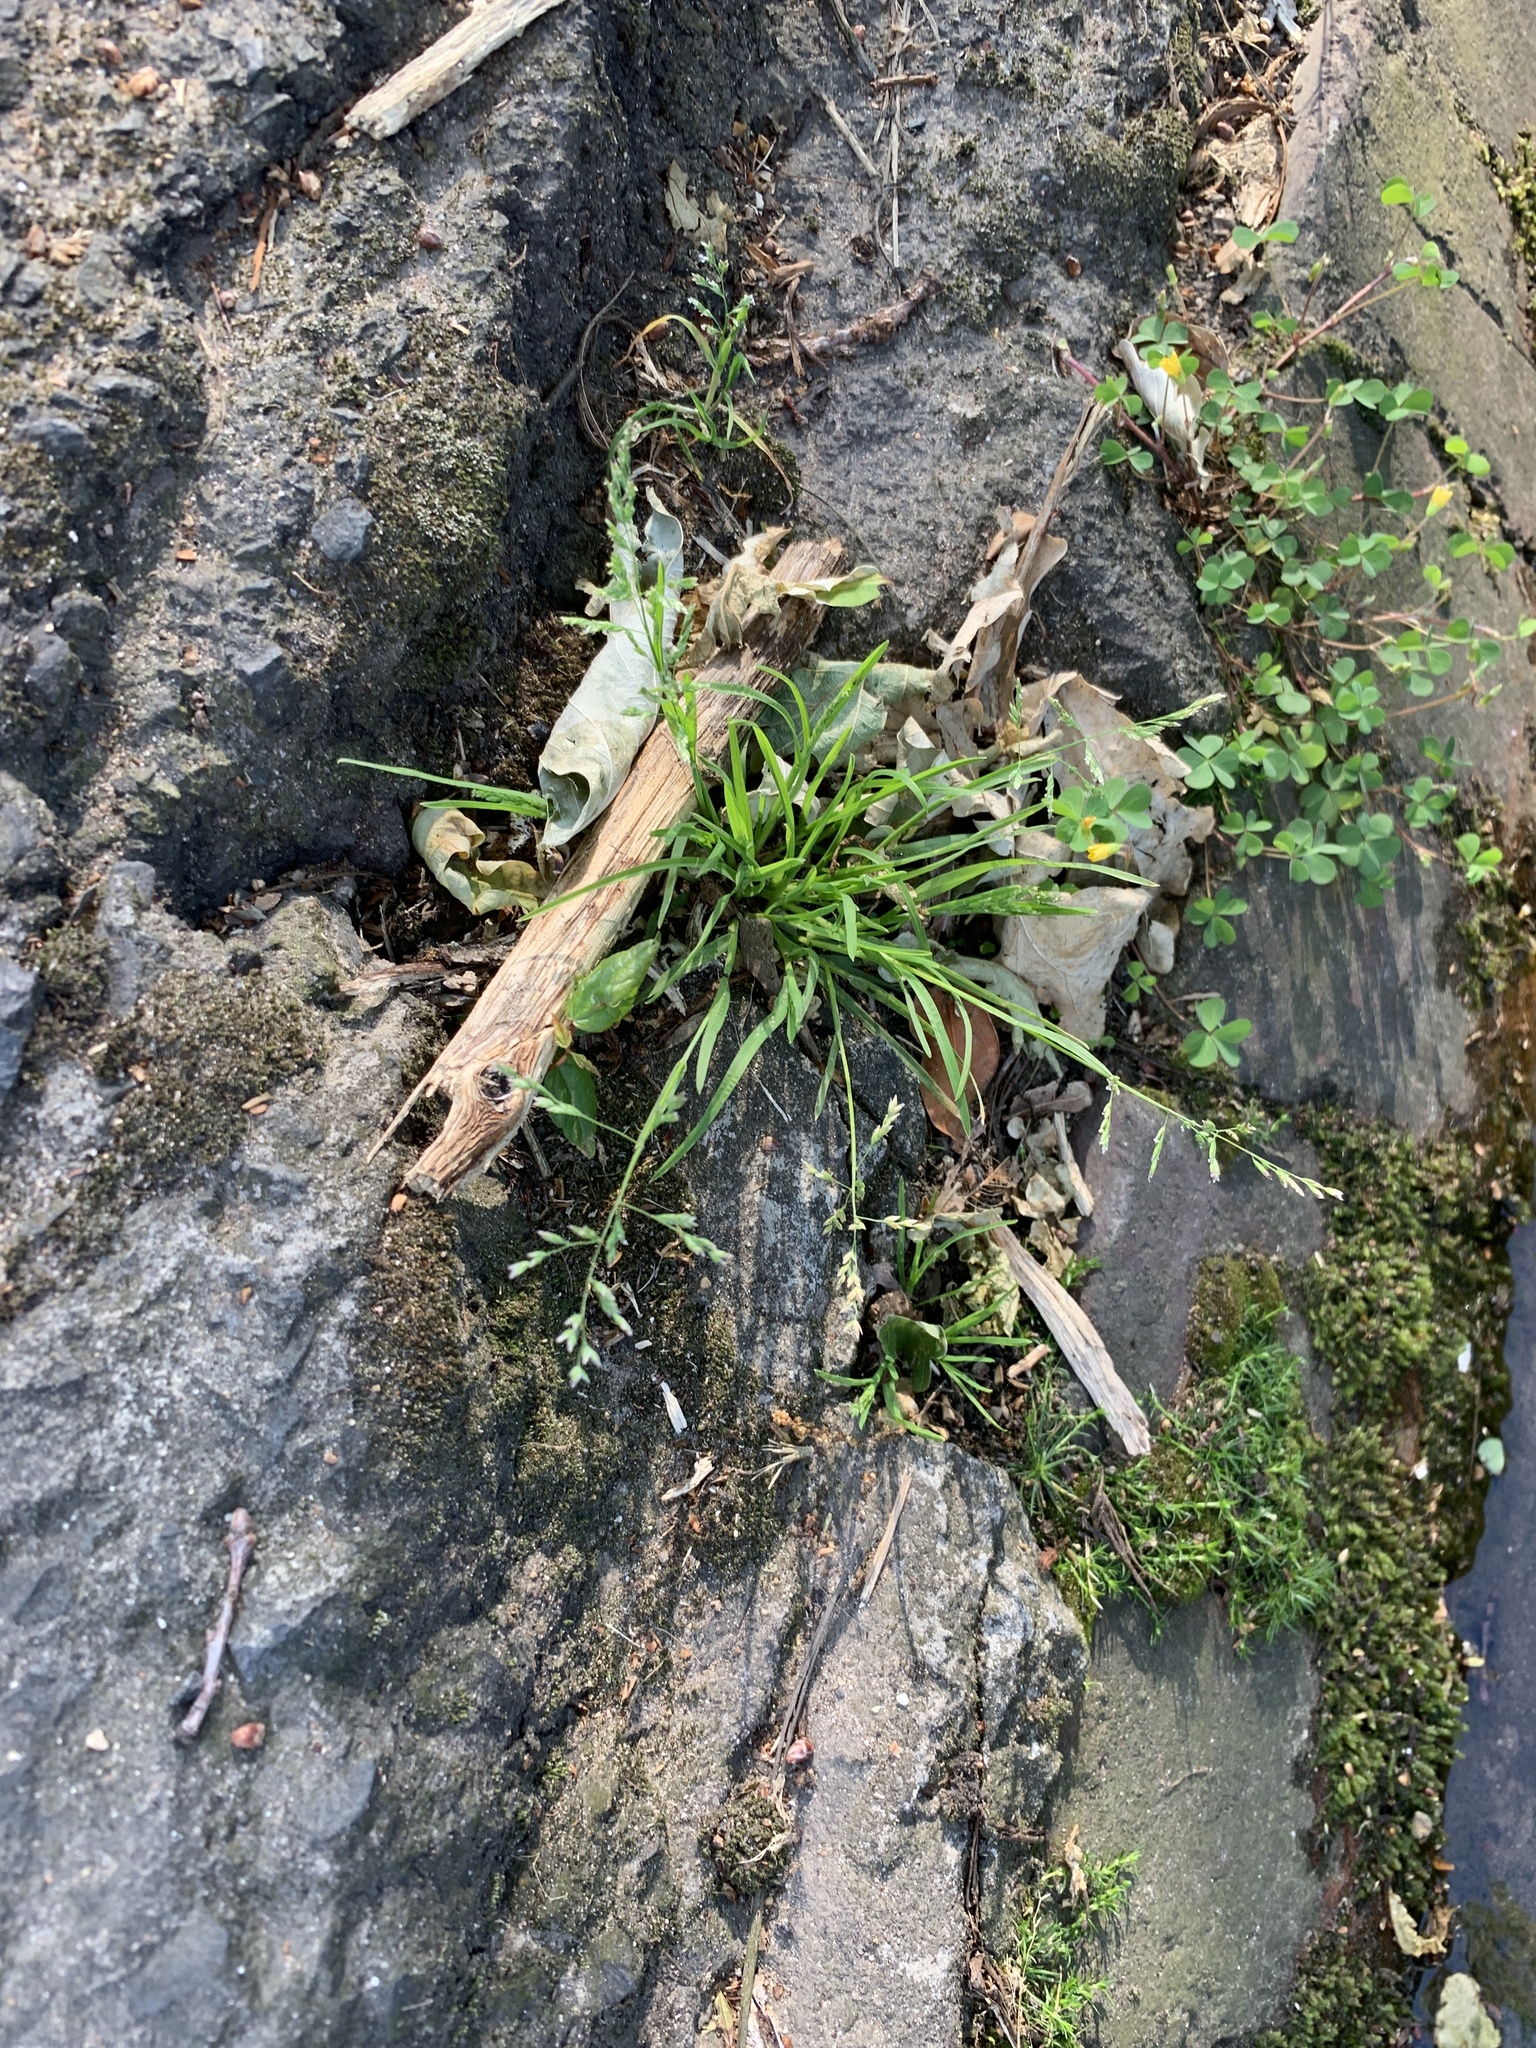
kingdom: Plantae
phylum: Tracheophyta
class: Liliopsida
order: Poales
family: Poaceae
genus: Poa
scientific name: Poa annua
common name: Annual bluegrass
